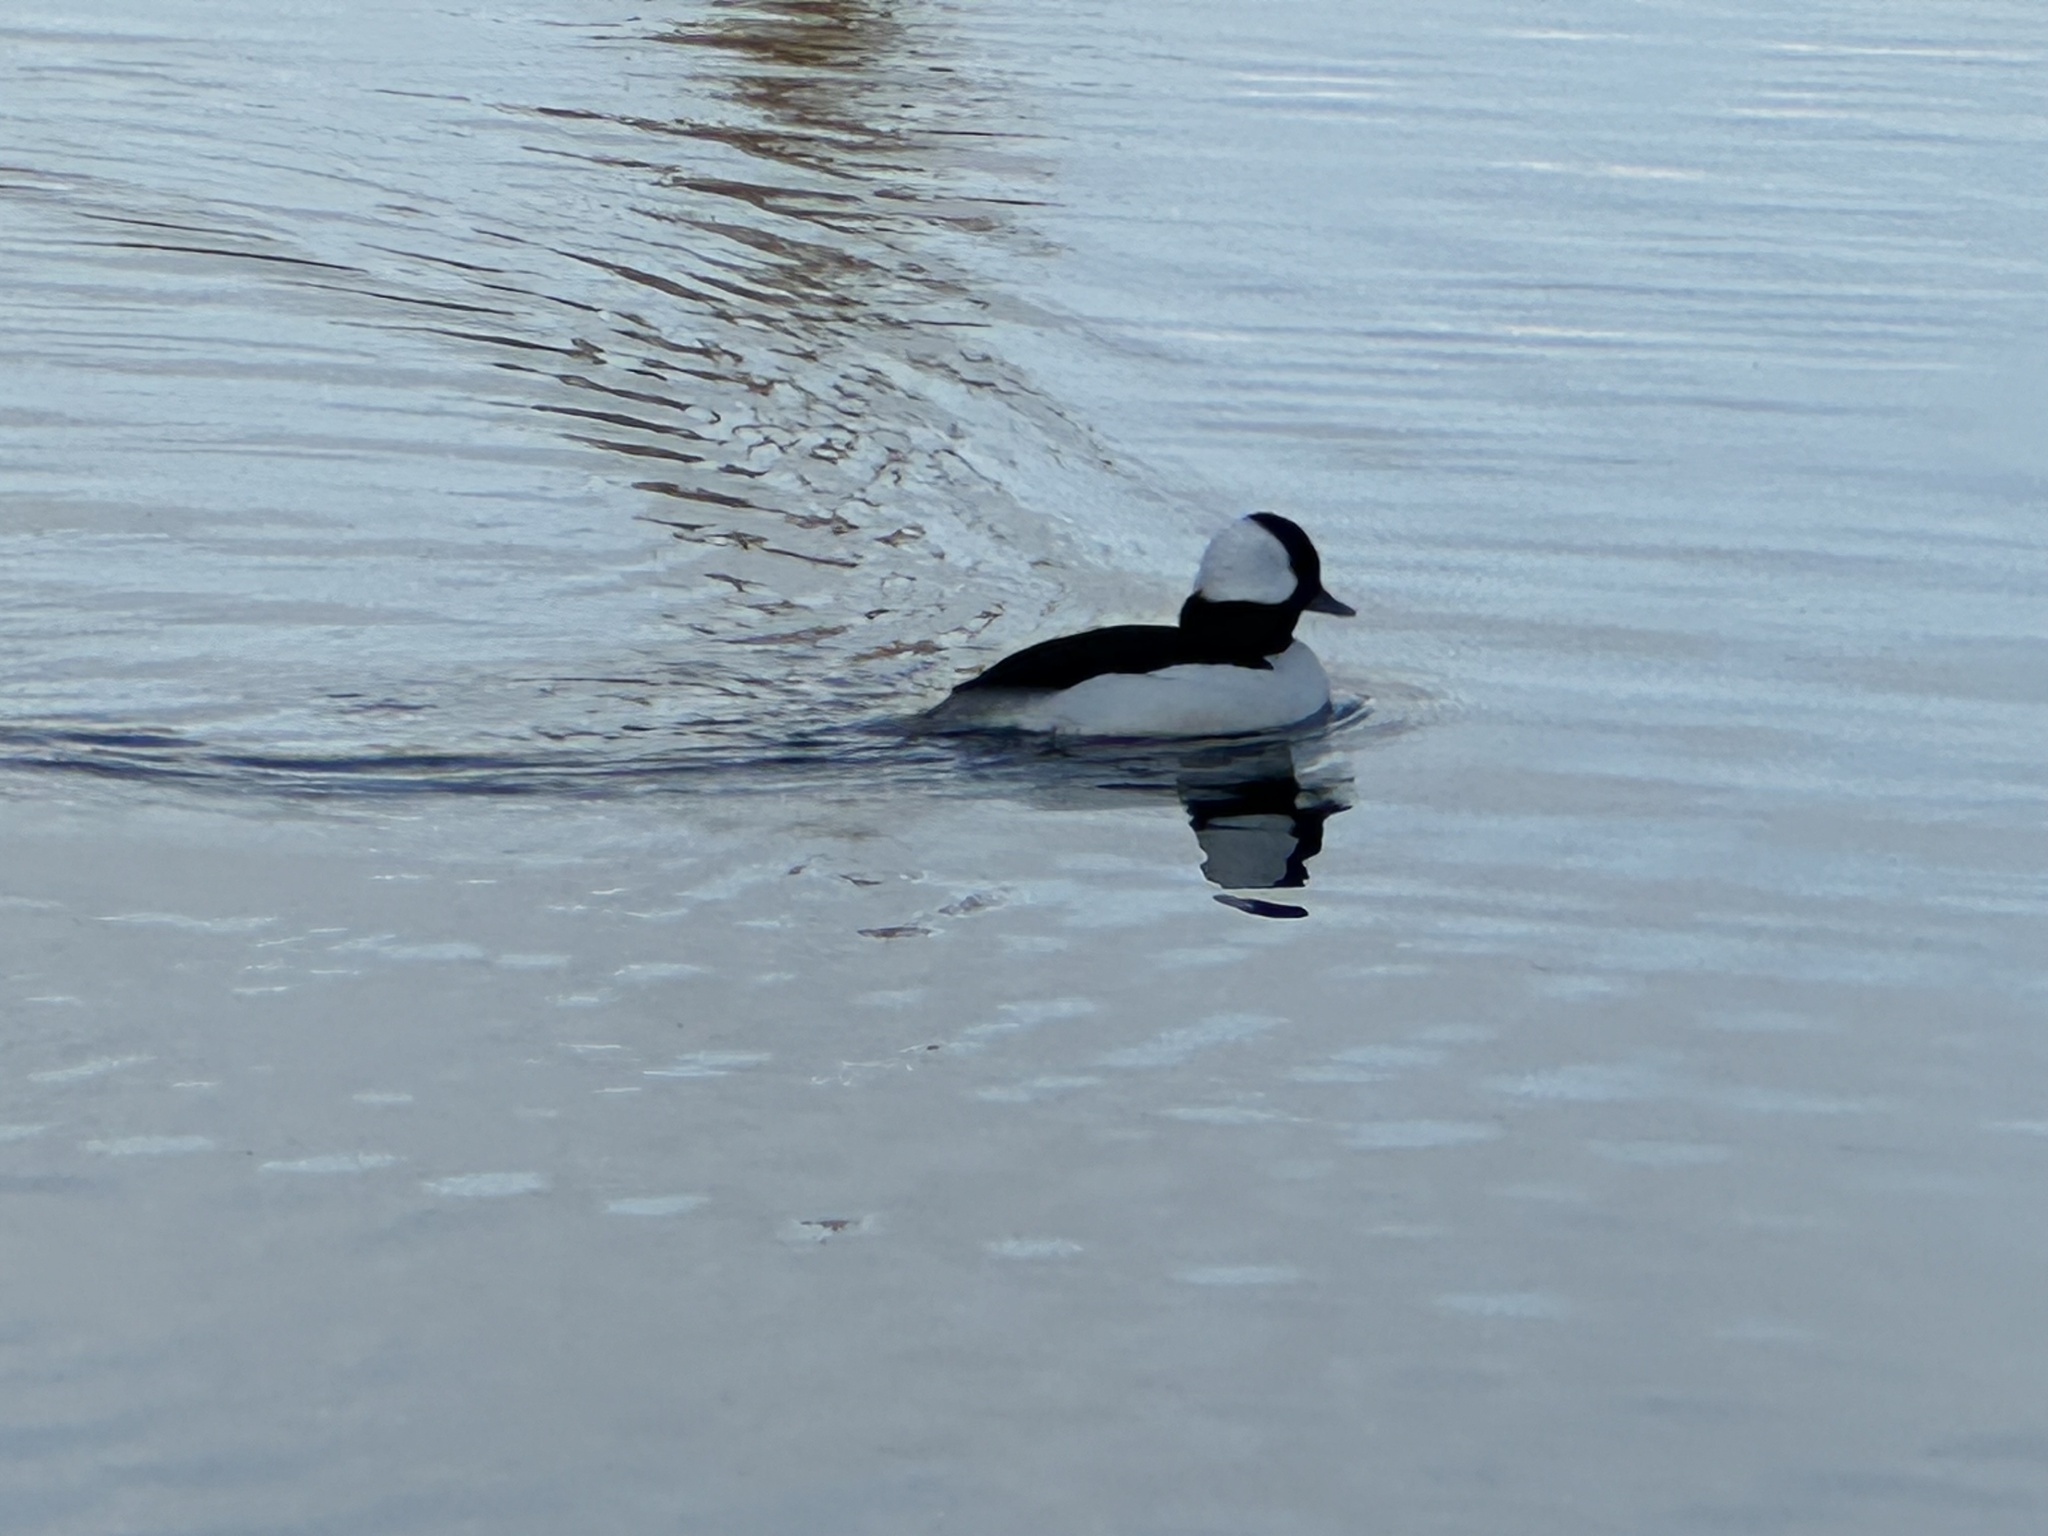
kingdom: Animalia
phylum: Chordata
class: Aves
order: Anseriformes
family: Anatidae
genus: Bucephala
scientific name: Bucephala albeola
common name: Bufflehead
